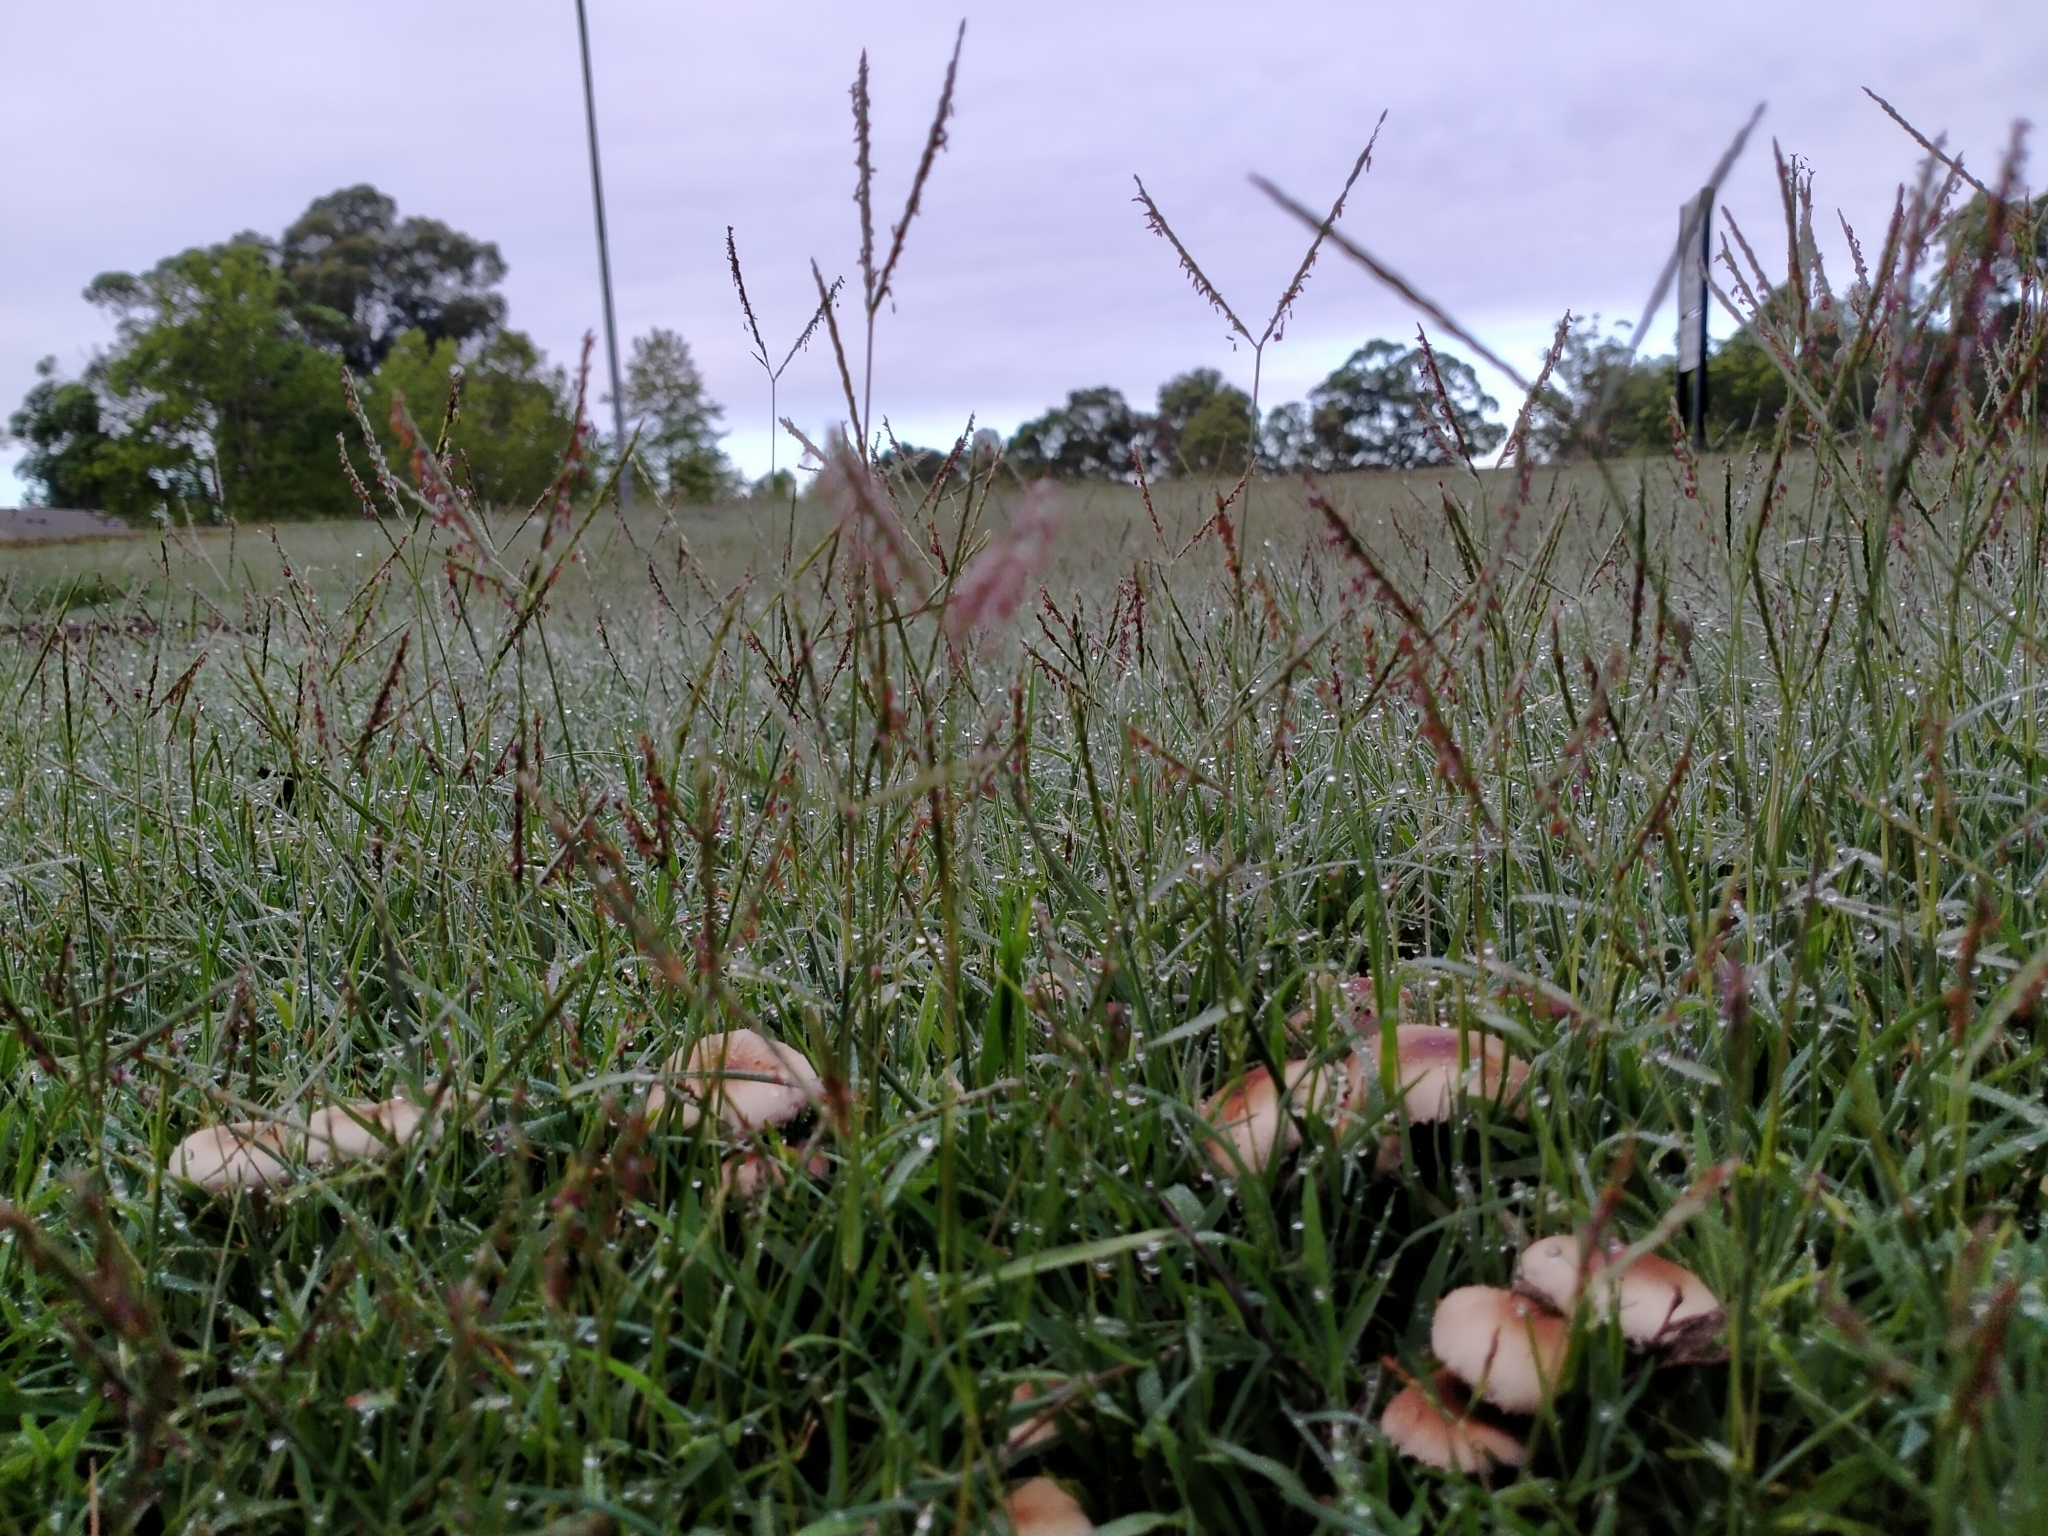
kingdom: Plantae
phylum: Tracheophyta
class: Liliopsida
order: Poales
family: Poaceae
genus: Digitaria
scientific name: Digitaria didactyla
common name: Blue couch
